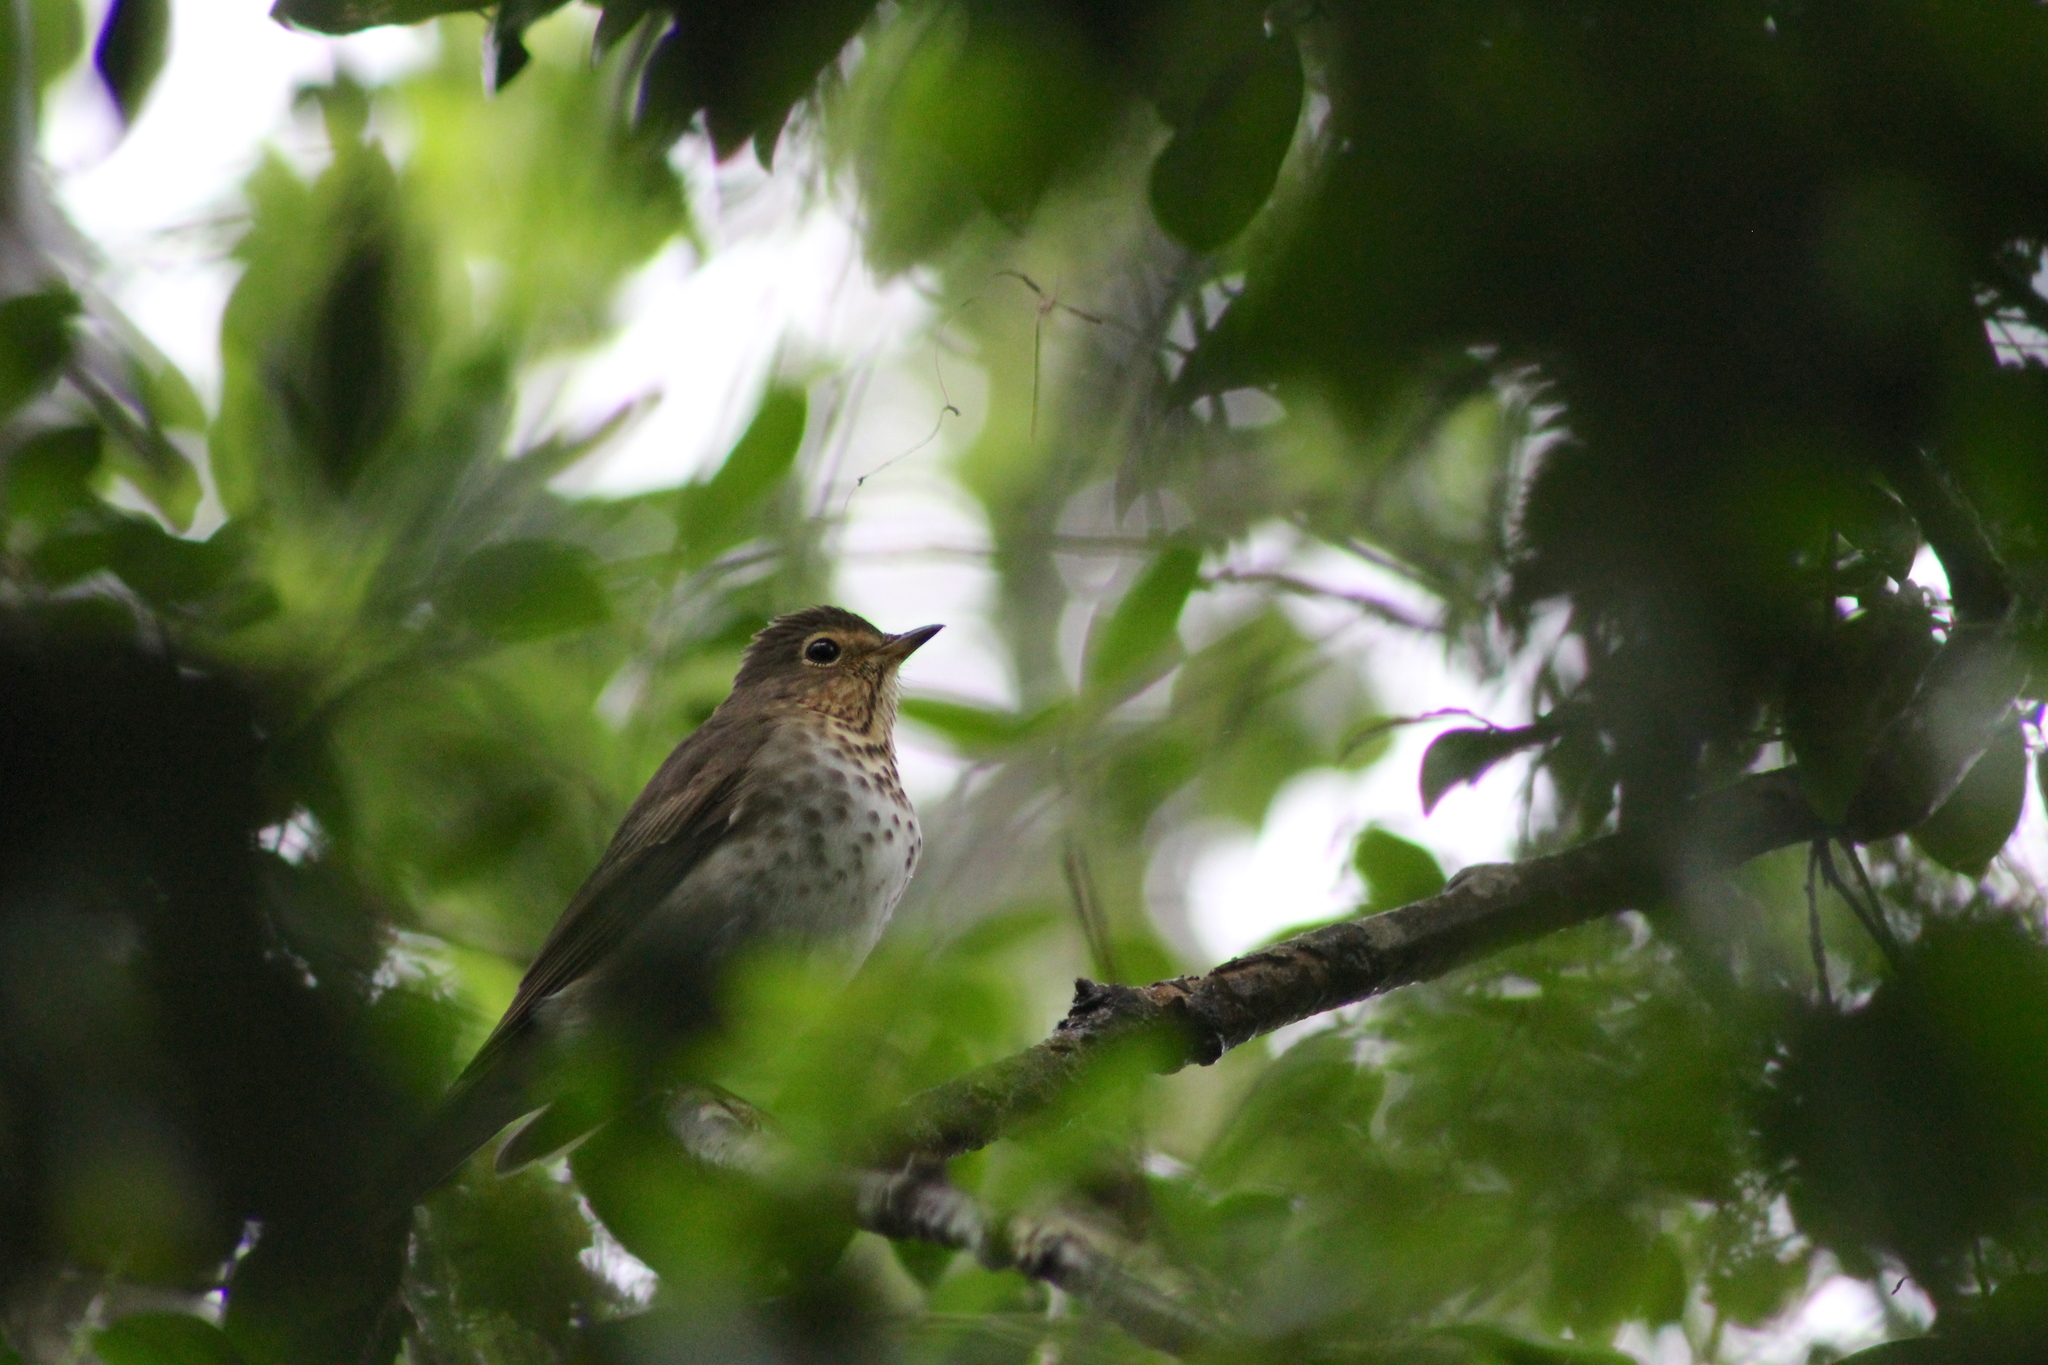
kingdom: Animalia
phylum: Chordata
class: Aves
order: Passeriformes
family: Turdidae
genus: Catharus
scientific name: Catharus ustulatus
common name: Swainson's thrush
